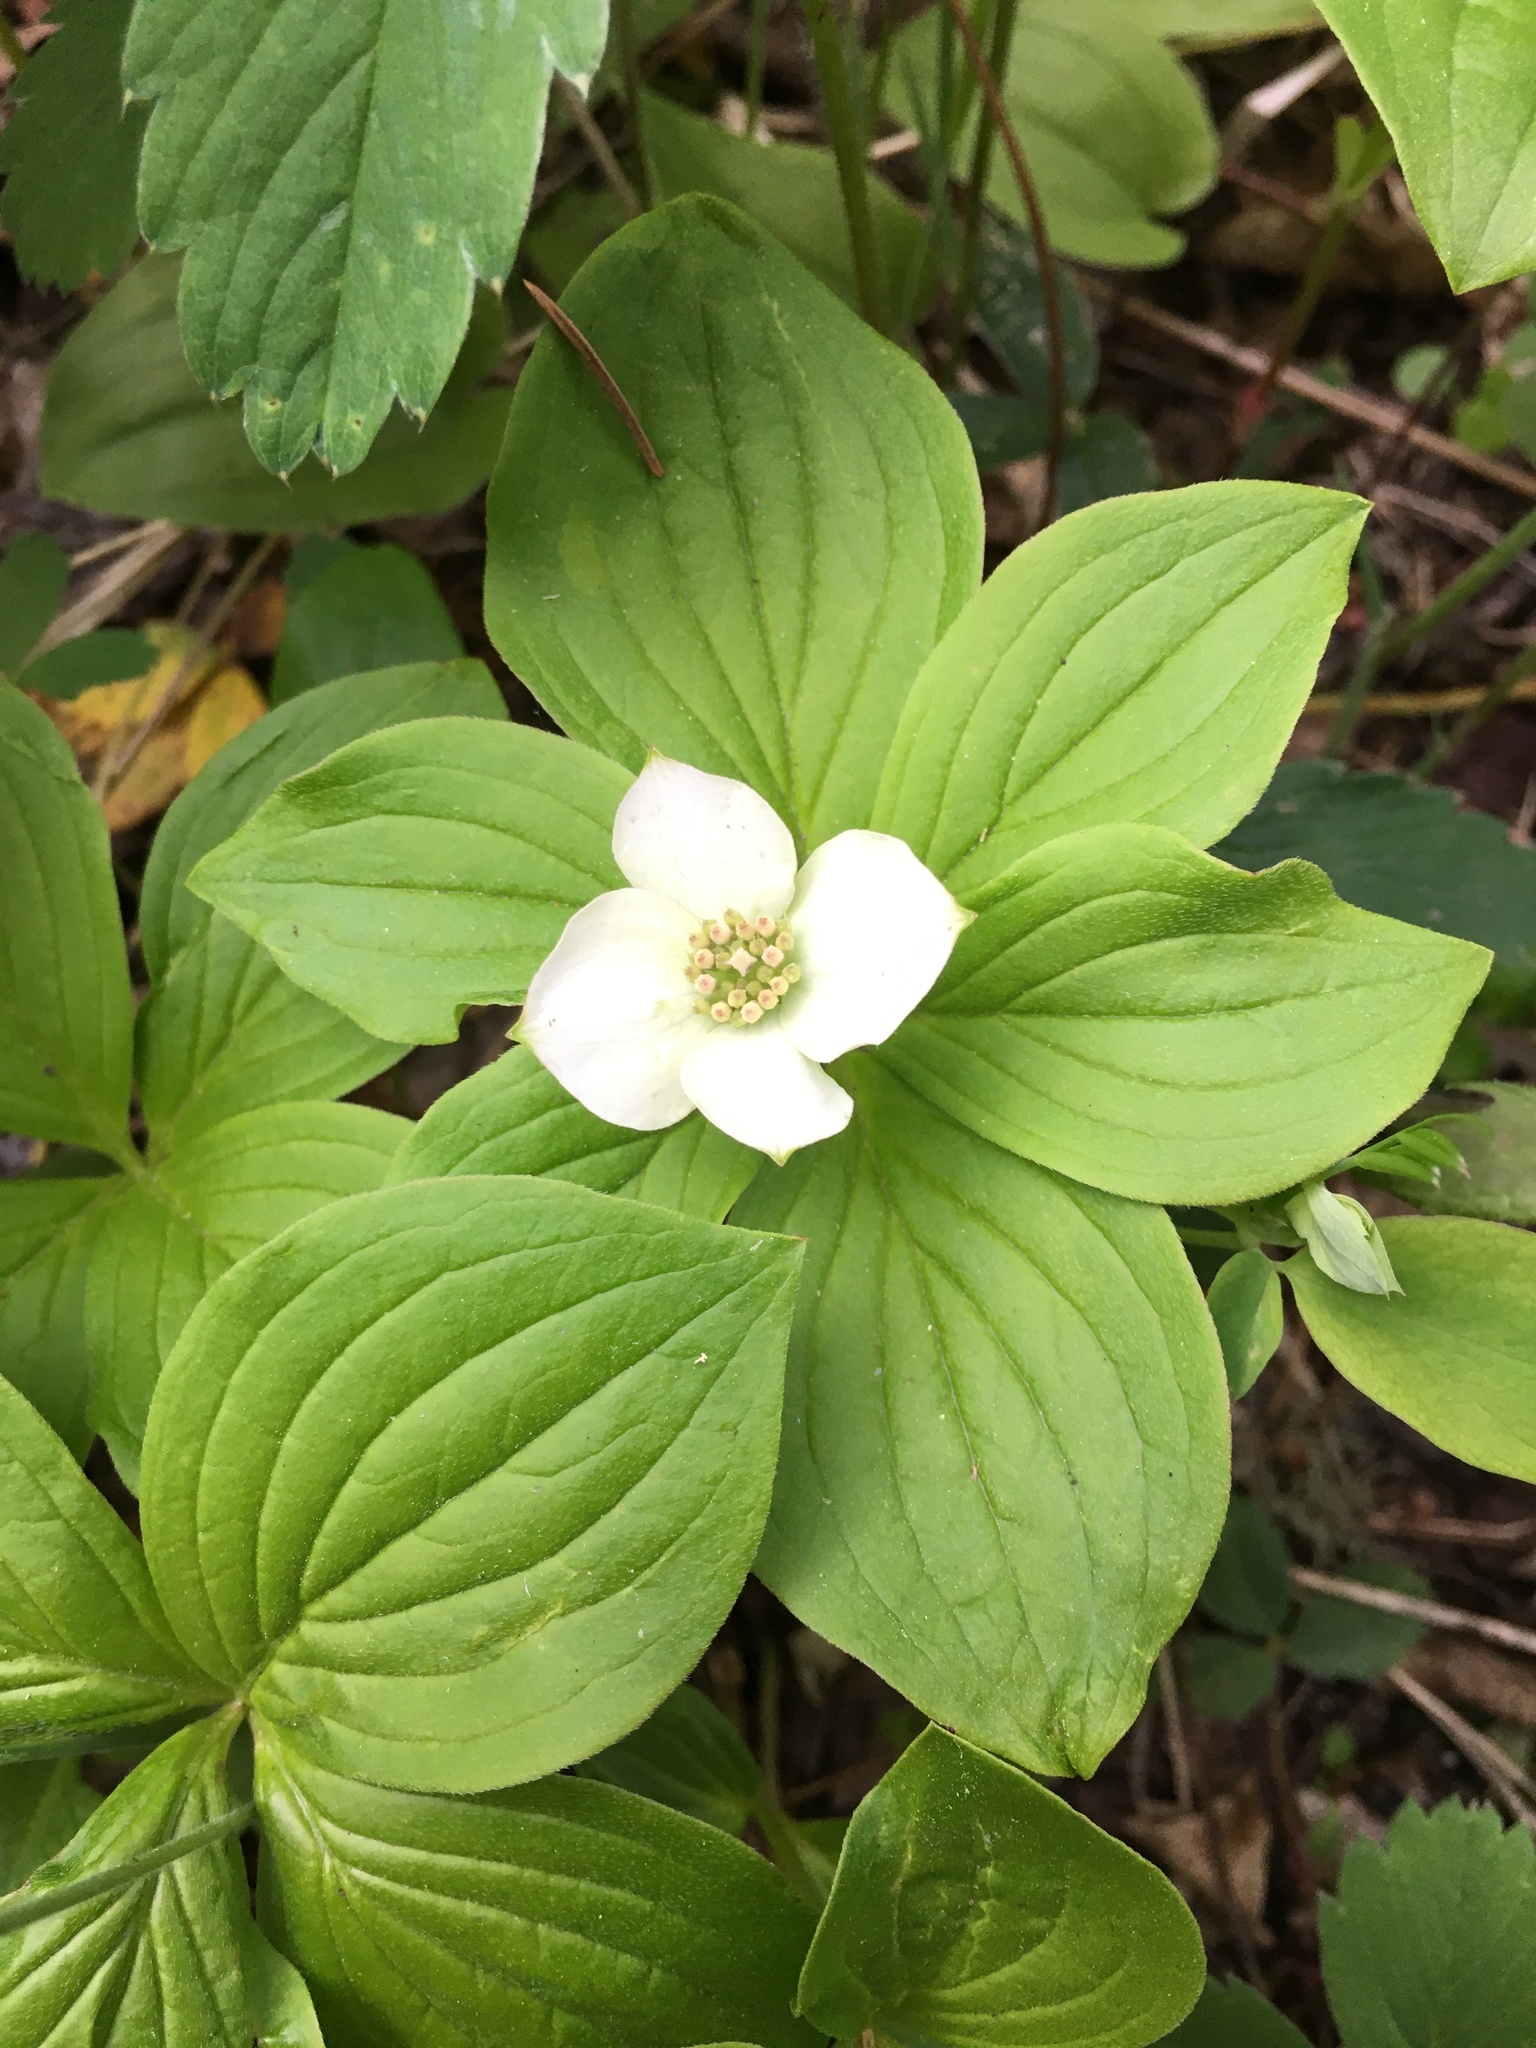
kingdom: Plantae
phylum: Tracheophyta
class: Magnoliopsida
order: Cornales
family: Cornaceae
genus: Cornus
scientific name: Cornus canadensis
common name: Creeping dogwood
